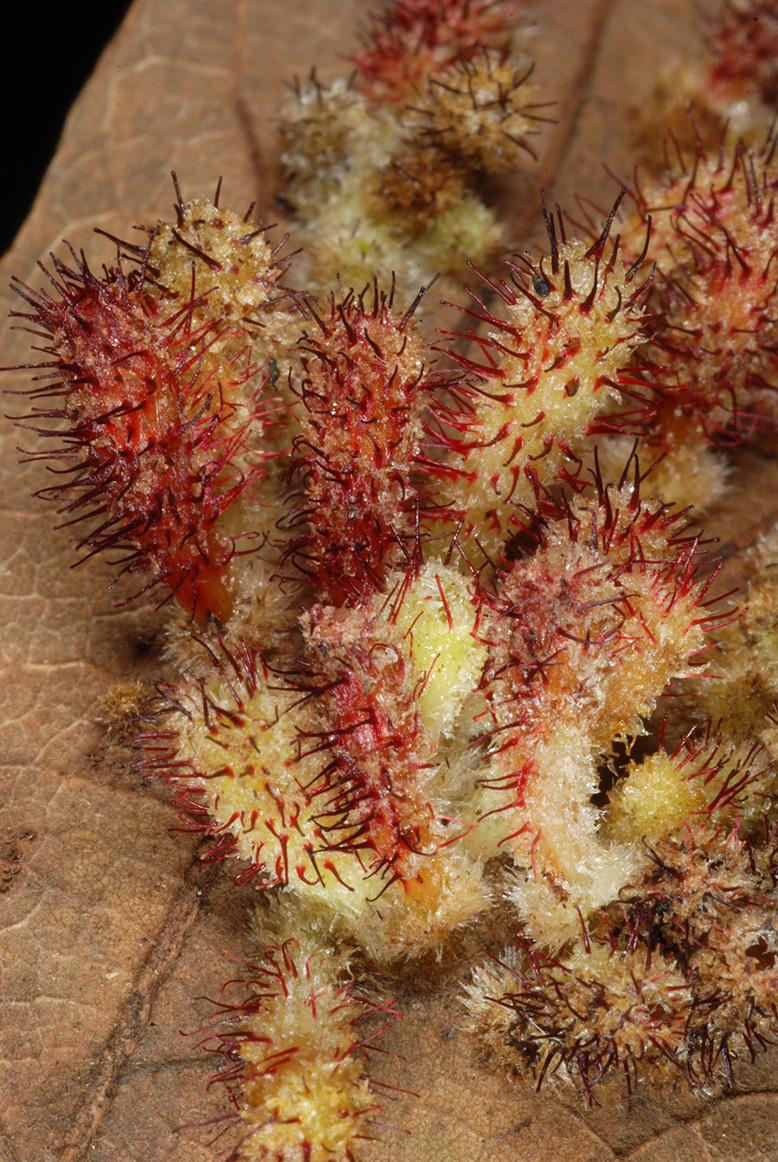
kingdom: Animalia
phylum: Arthropoda
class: Insecta
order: Hymenoptera
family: Cynipidae
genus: Callirhytis
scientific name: Callirhytis
